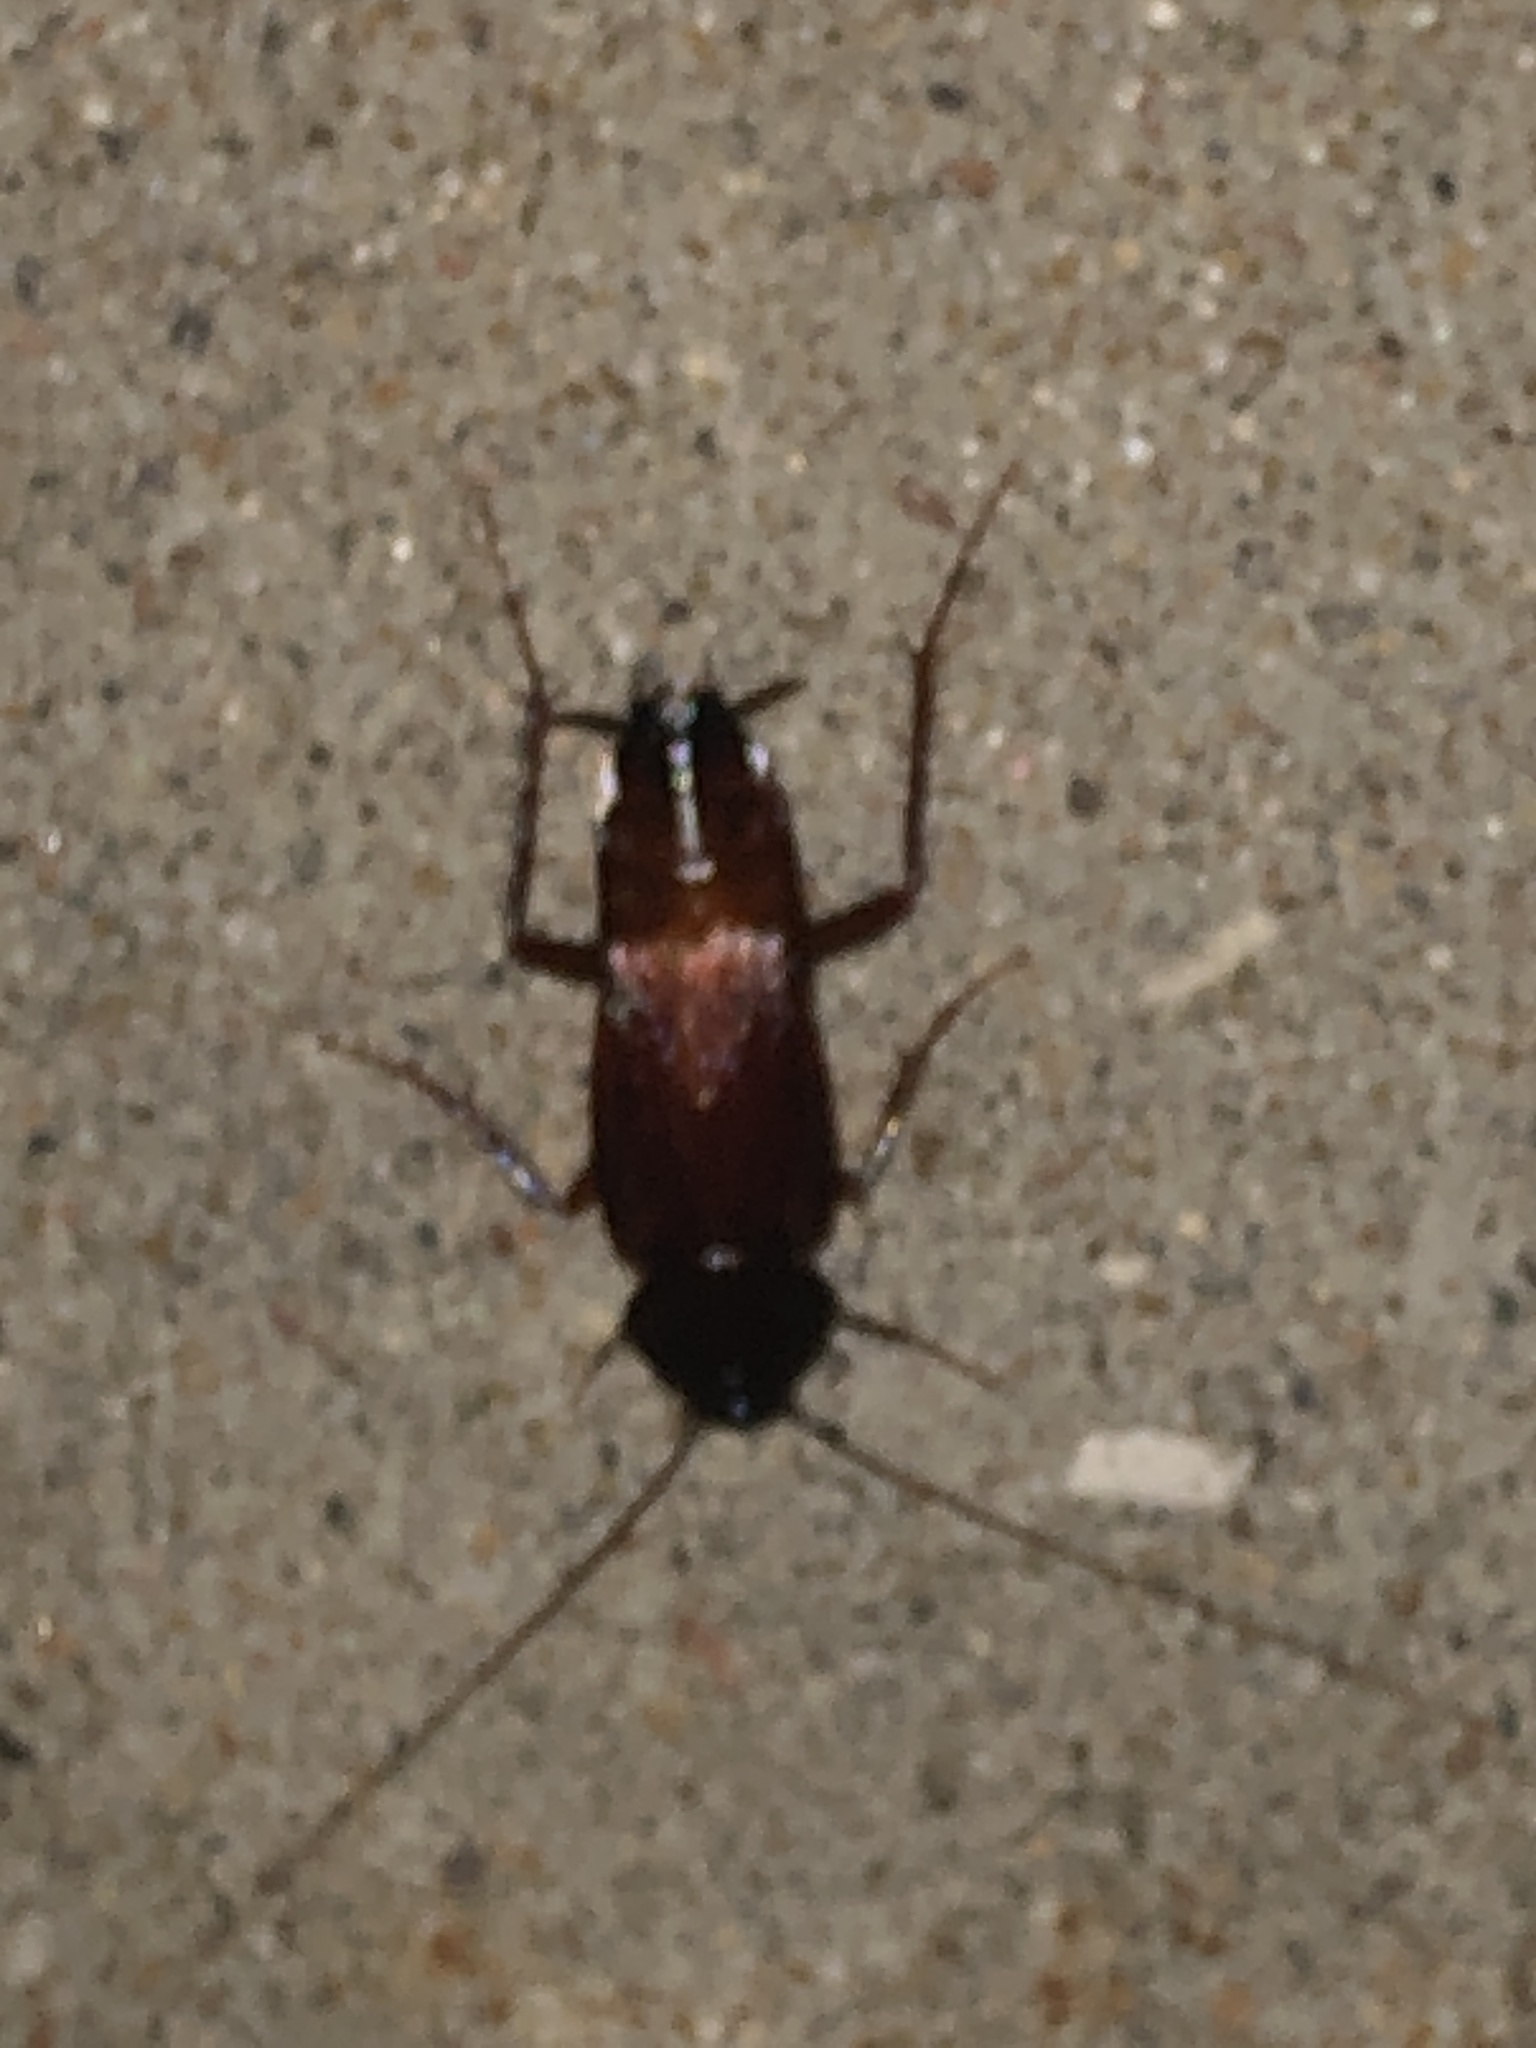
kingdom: Animalia
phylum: Arthropoda
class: Insecta
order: Blattodea
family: Blattidae
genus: Blatta
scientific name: Blatta orientalis
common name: Oriental cockroach
